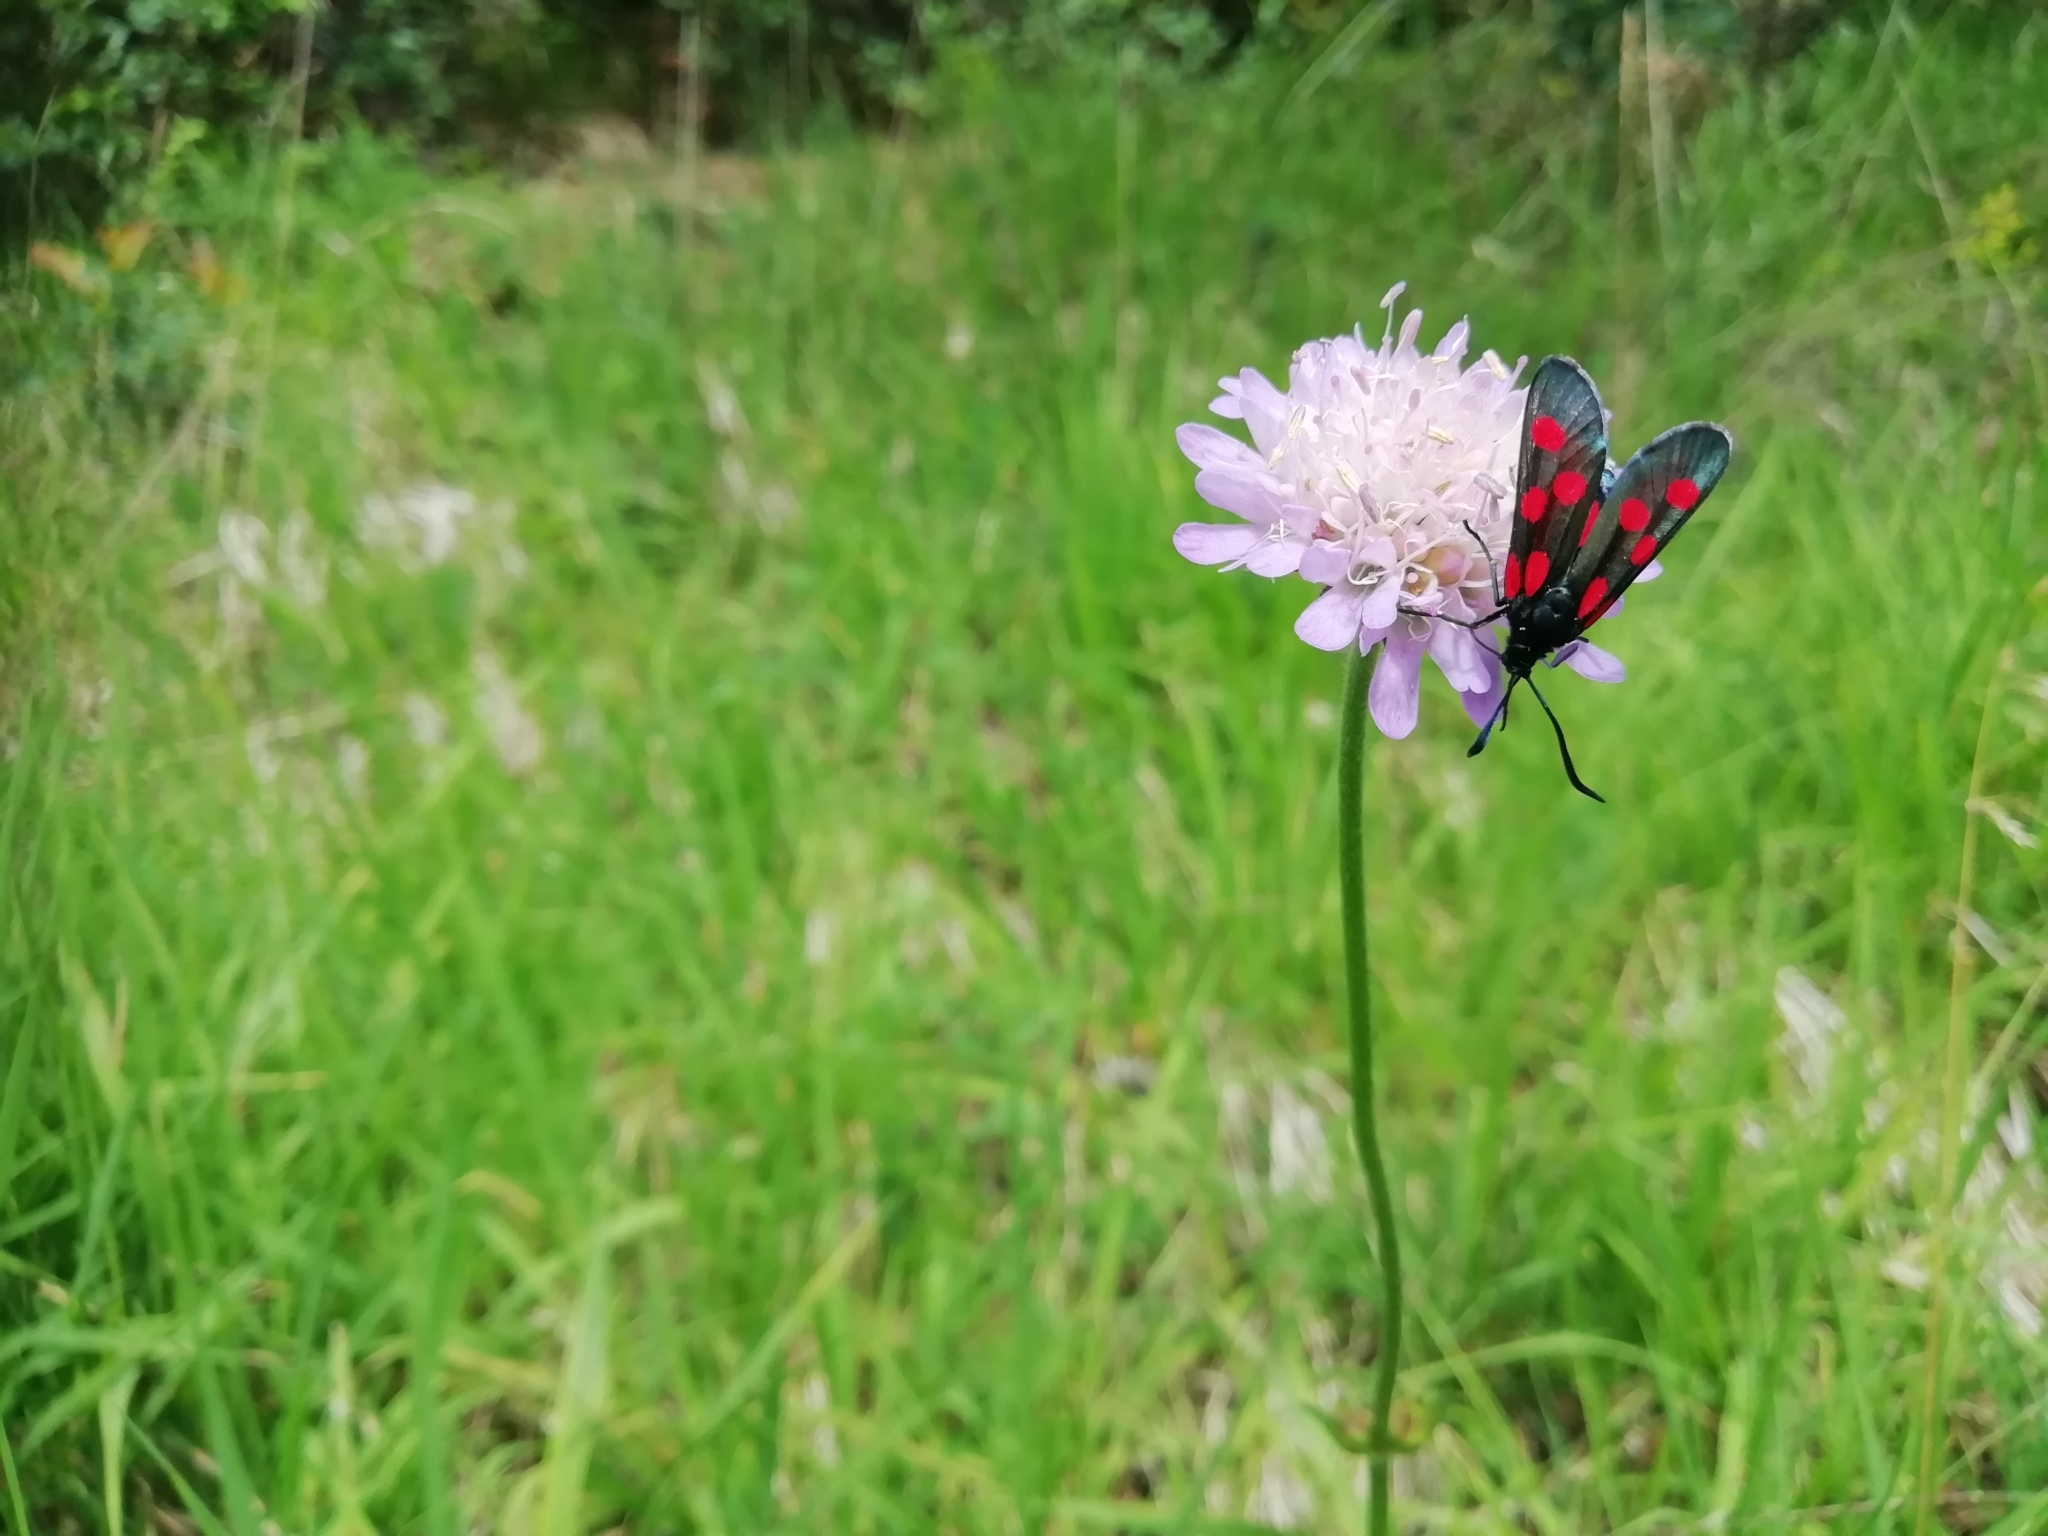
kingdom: Animalia
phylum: Arthropoda
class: Insecta
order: Lepidoptera
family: Zygaenidae
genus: Zygaena
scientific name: Zygaena lonicerae
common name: Narrow-bordered five-spot burnet
